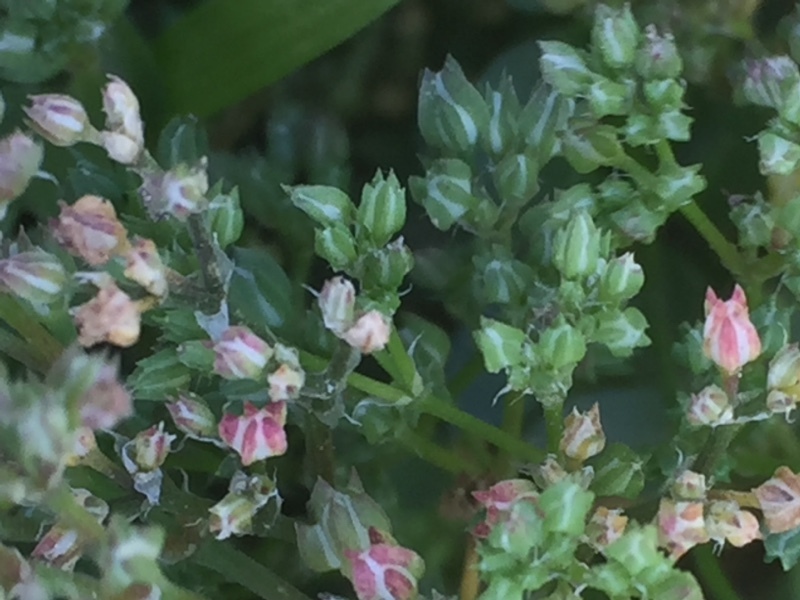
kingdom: Plantae
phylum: Tracheophyta
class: Magnoliopsida
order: Caryophyllales
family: Caryophyllaceae
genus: Polycarpon
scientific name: Polycarpon tetraphyllum
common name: Four-leaved all-seed
